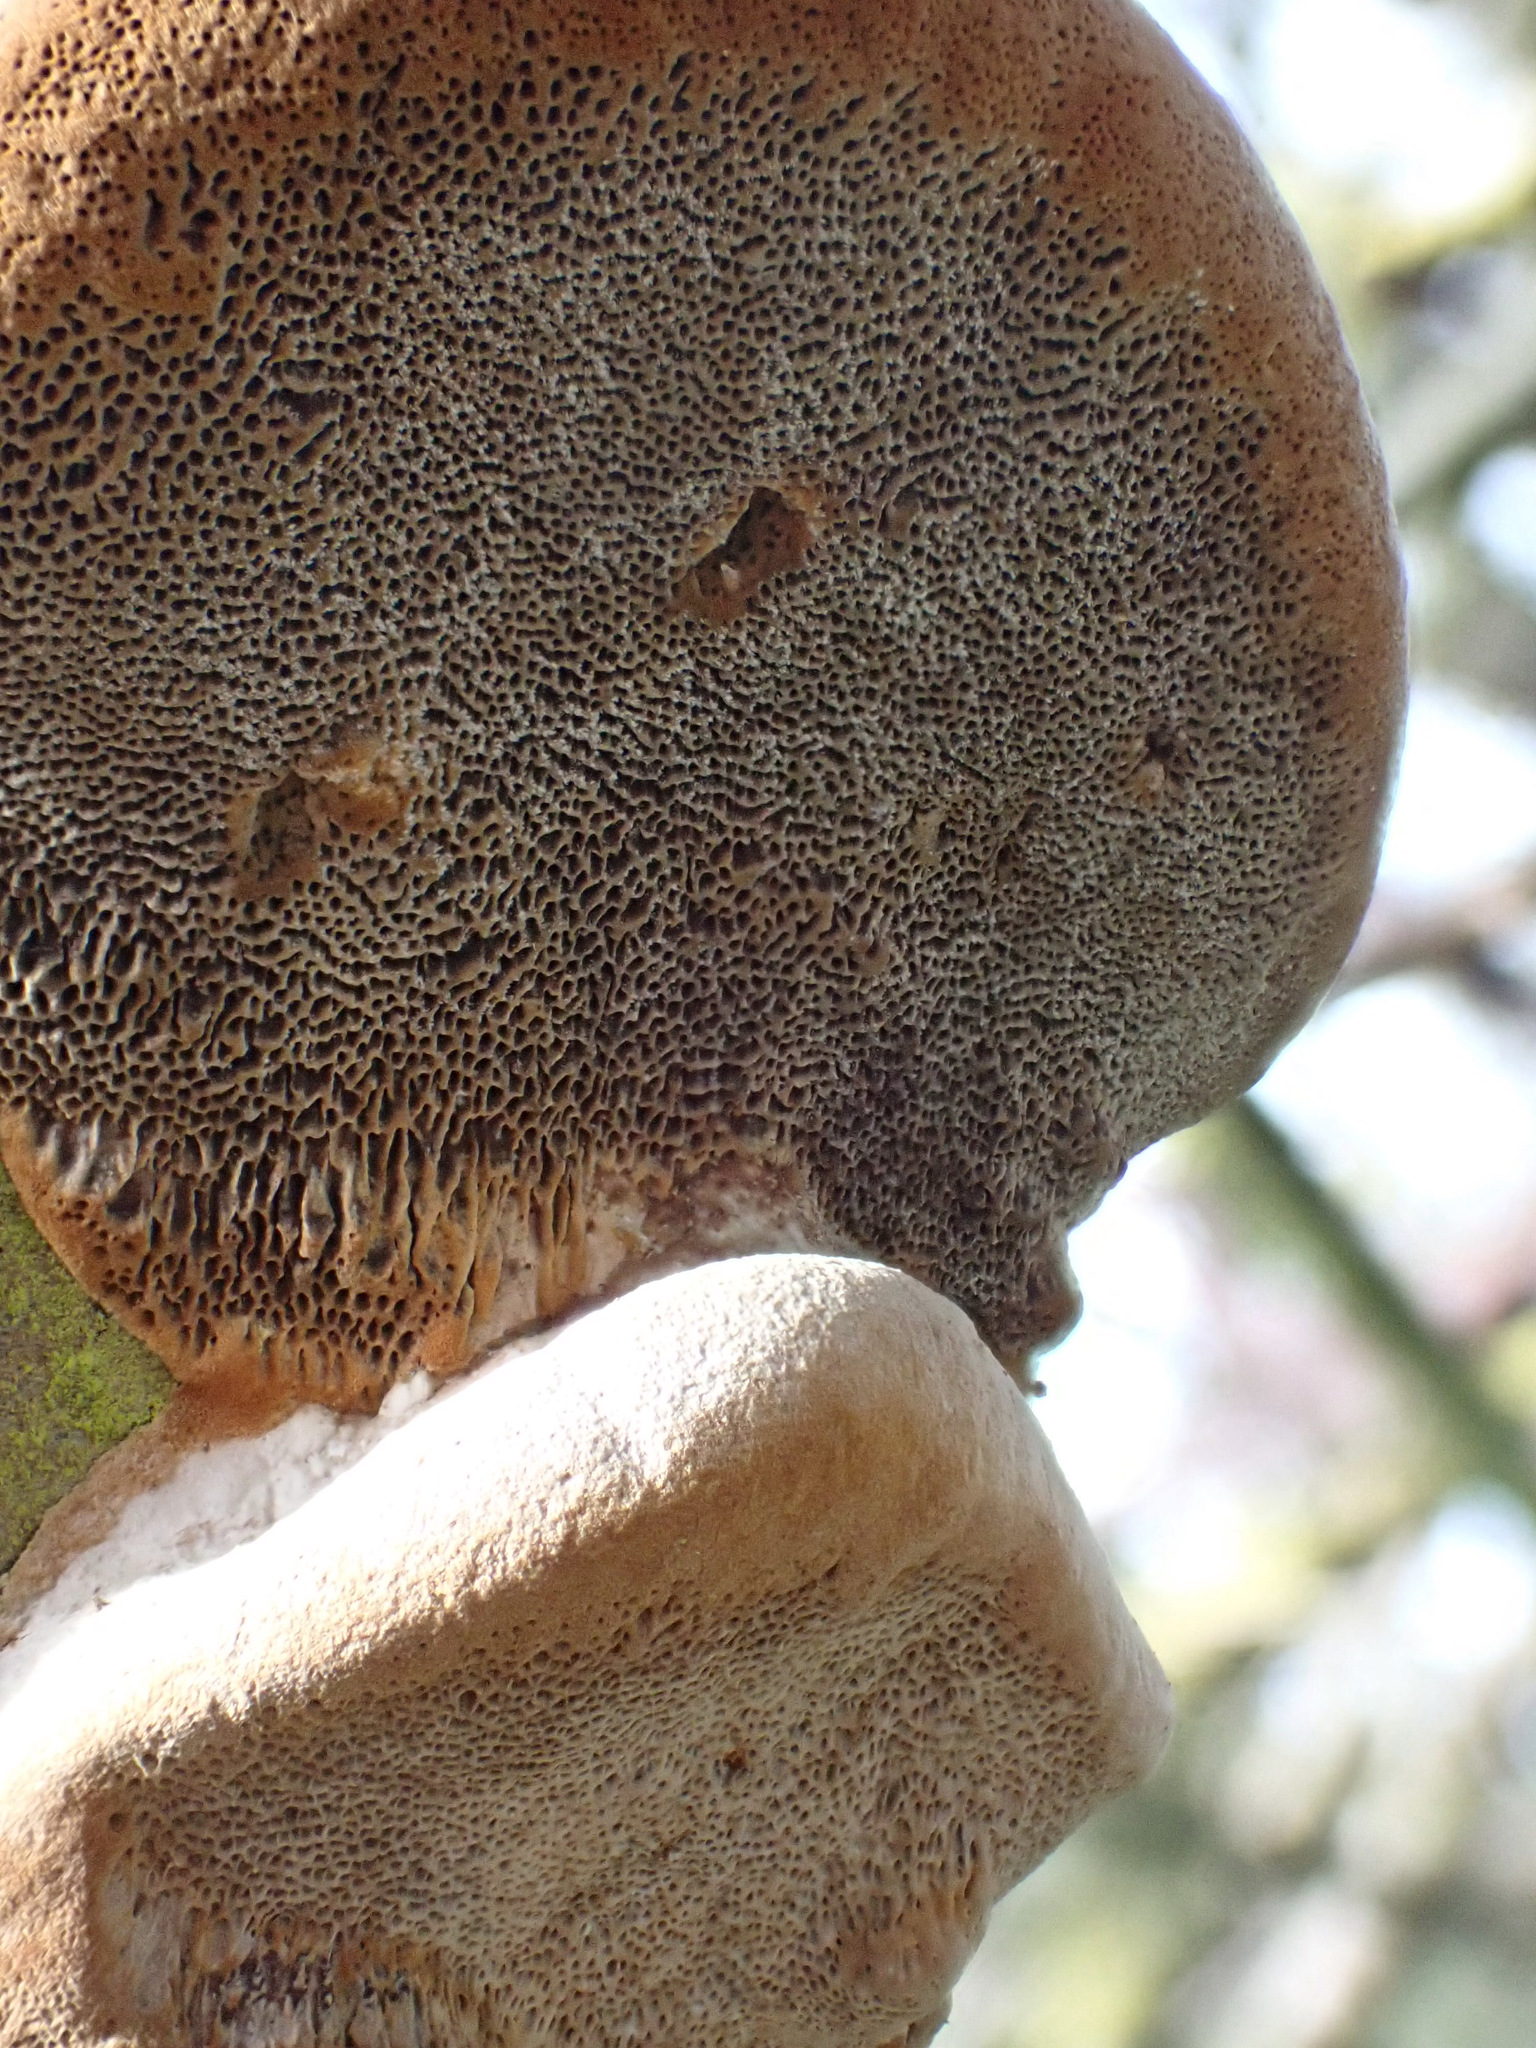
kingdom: Fungi
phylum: Basidiomycota
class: Agaricomycetes
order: Hymenochaetales
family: Hymenochaetaceae
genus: Phellinus
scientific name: Phellinus pomaceus
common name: Cushion bracket
